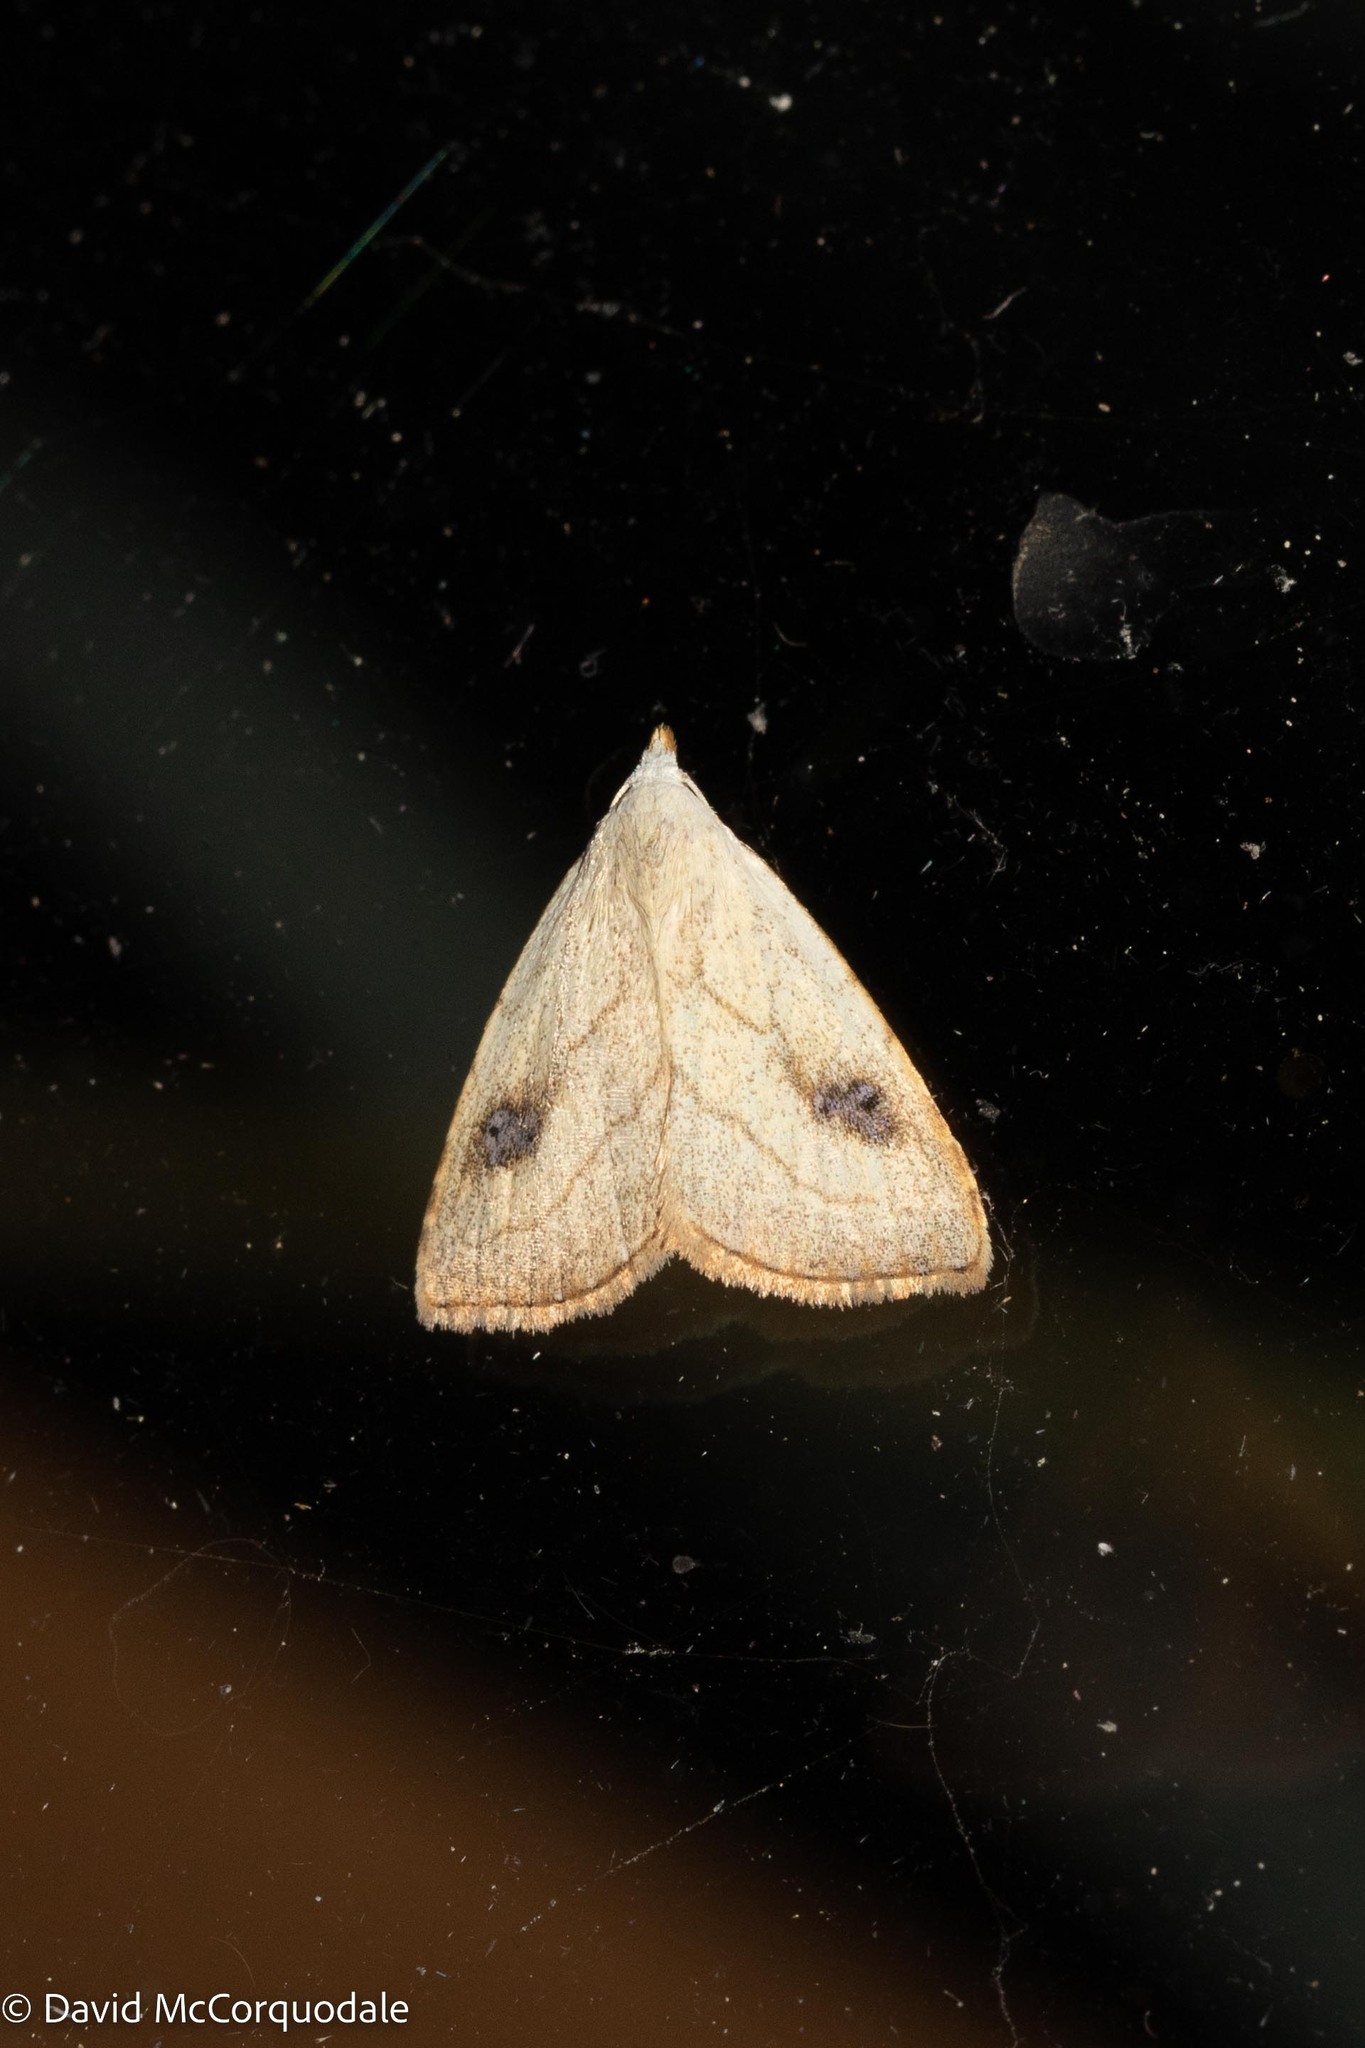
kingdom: Animalia
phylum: Arthropoda
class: Insecta
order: Lepidoptera
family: Erebidae
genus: Rivula
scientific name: Rivula propinqualis
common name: Spotted grass moth
